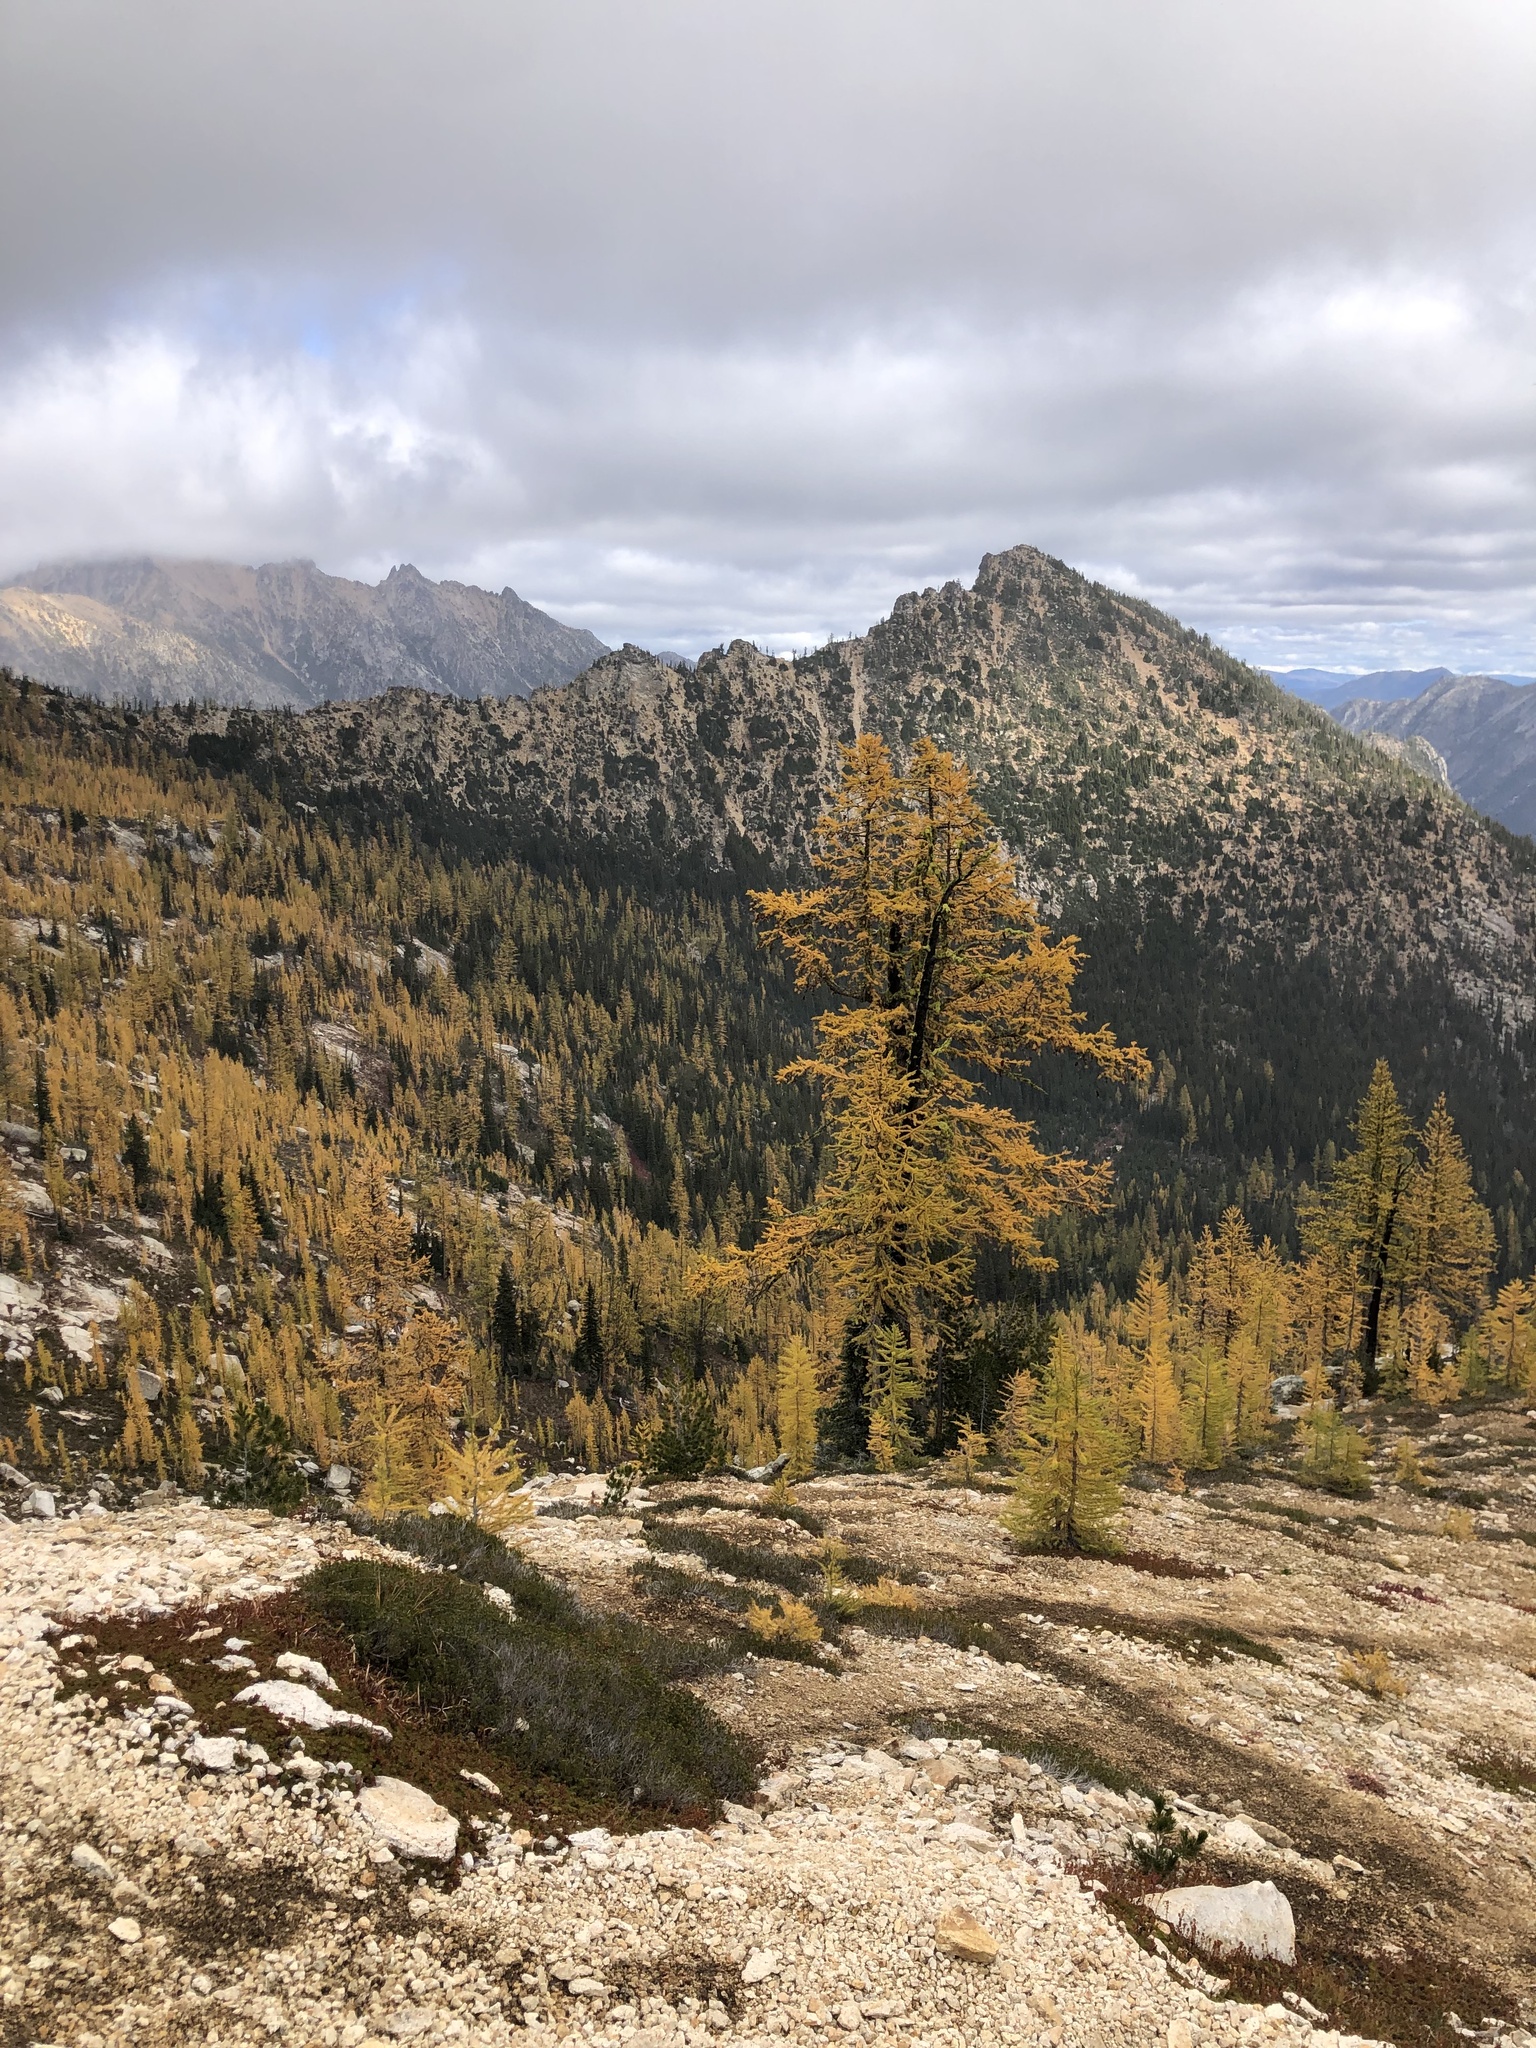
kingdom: Plantae
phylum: Tracheophyta
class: Pinopsida
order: Pinales
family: Pinaceae
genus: Larix
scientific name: Larix lyallii
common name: Alpine larch
